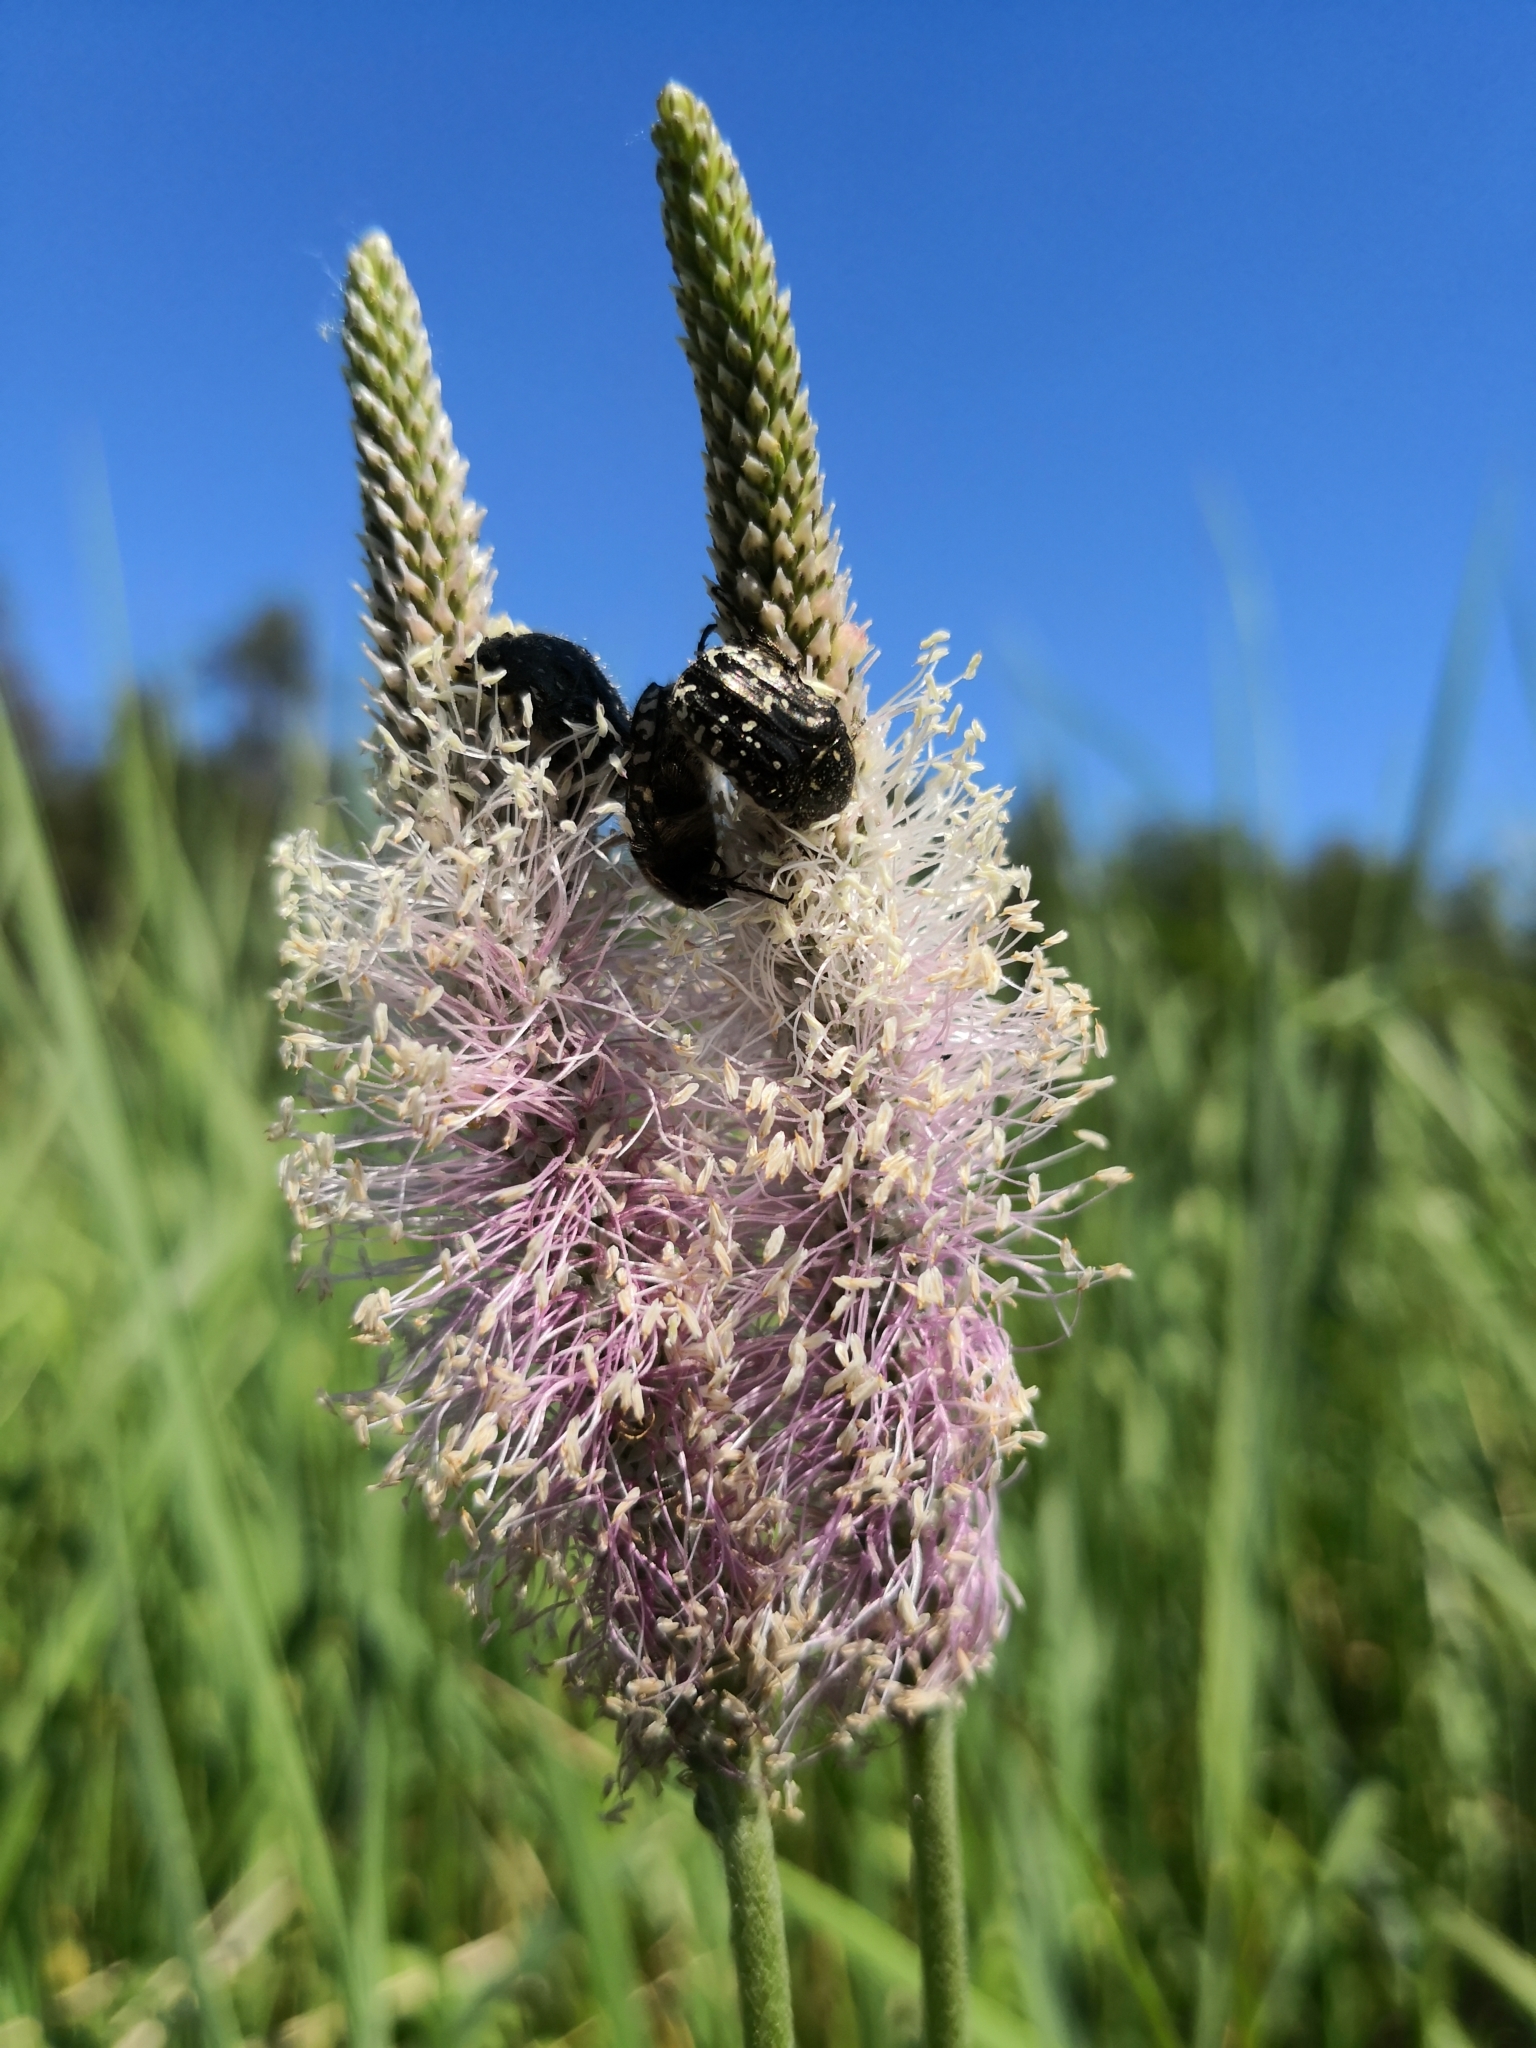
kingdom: Plantae
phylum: Tracheophyta
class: Magnoliopsida
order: Lamiales
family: Plantaginaceae
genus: Plantago
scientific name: Plantago media
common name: Hoary plantain
